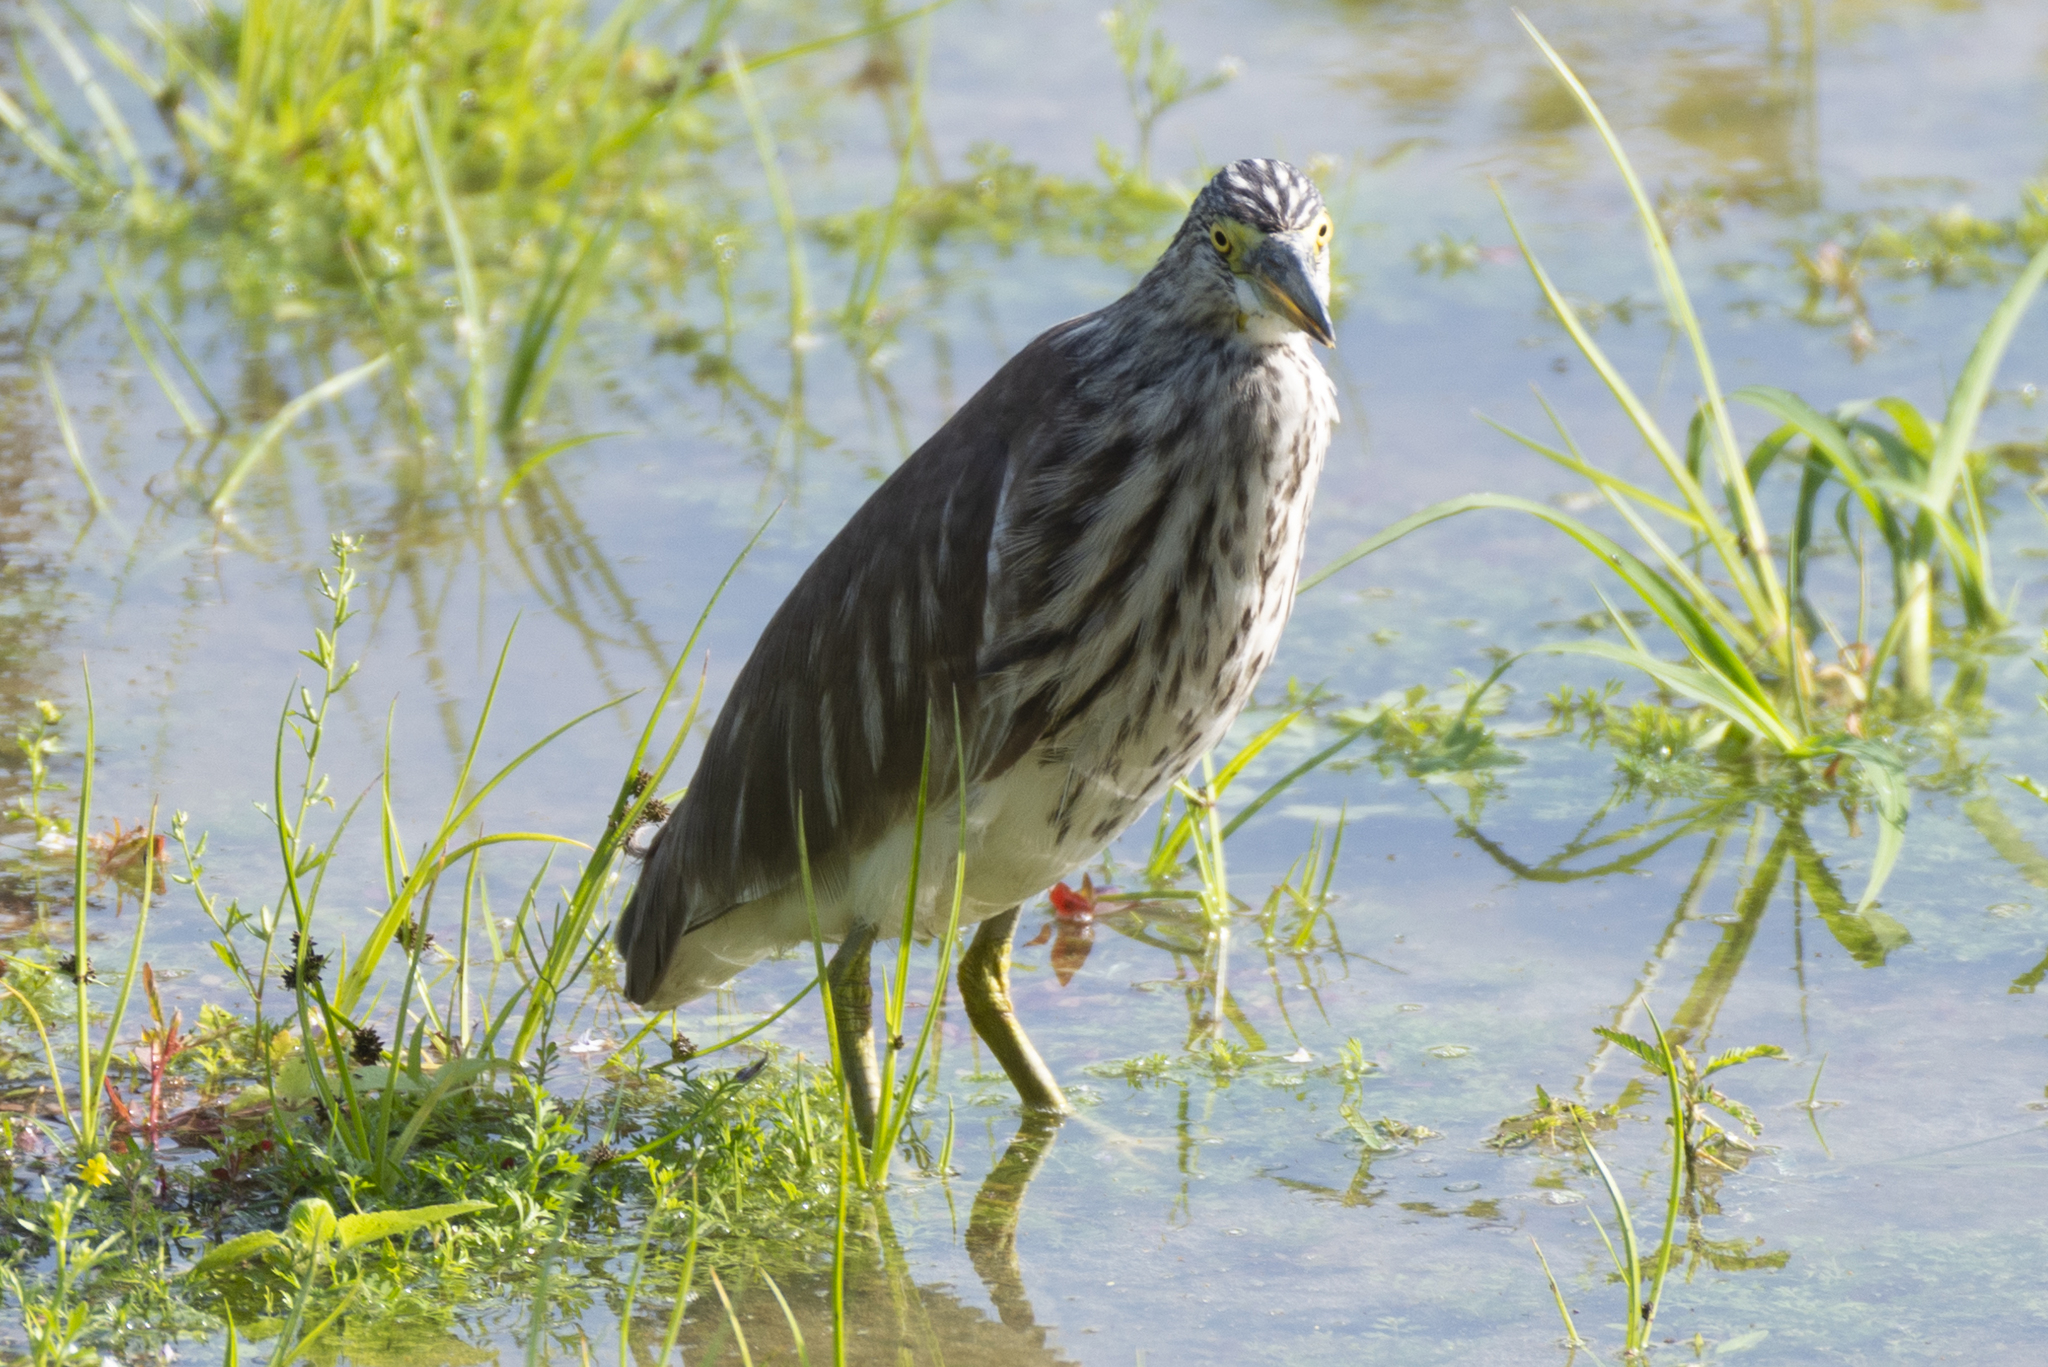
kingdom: Animalia
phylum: Chordata
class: Aves
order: Pelecaniformes
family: Ardeidae
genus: Ardeola
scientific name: Ardeola bacchus
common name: Chinese pond heron
